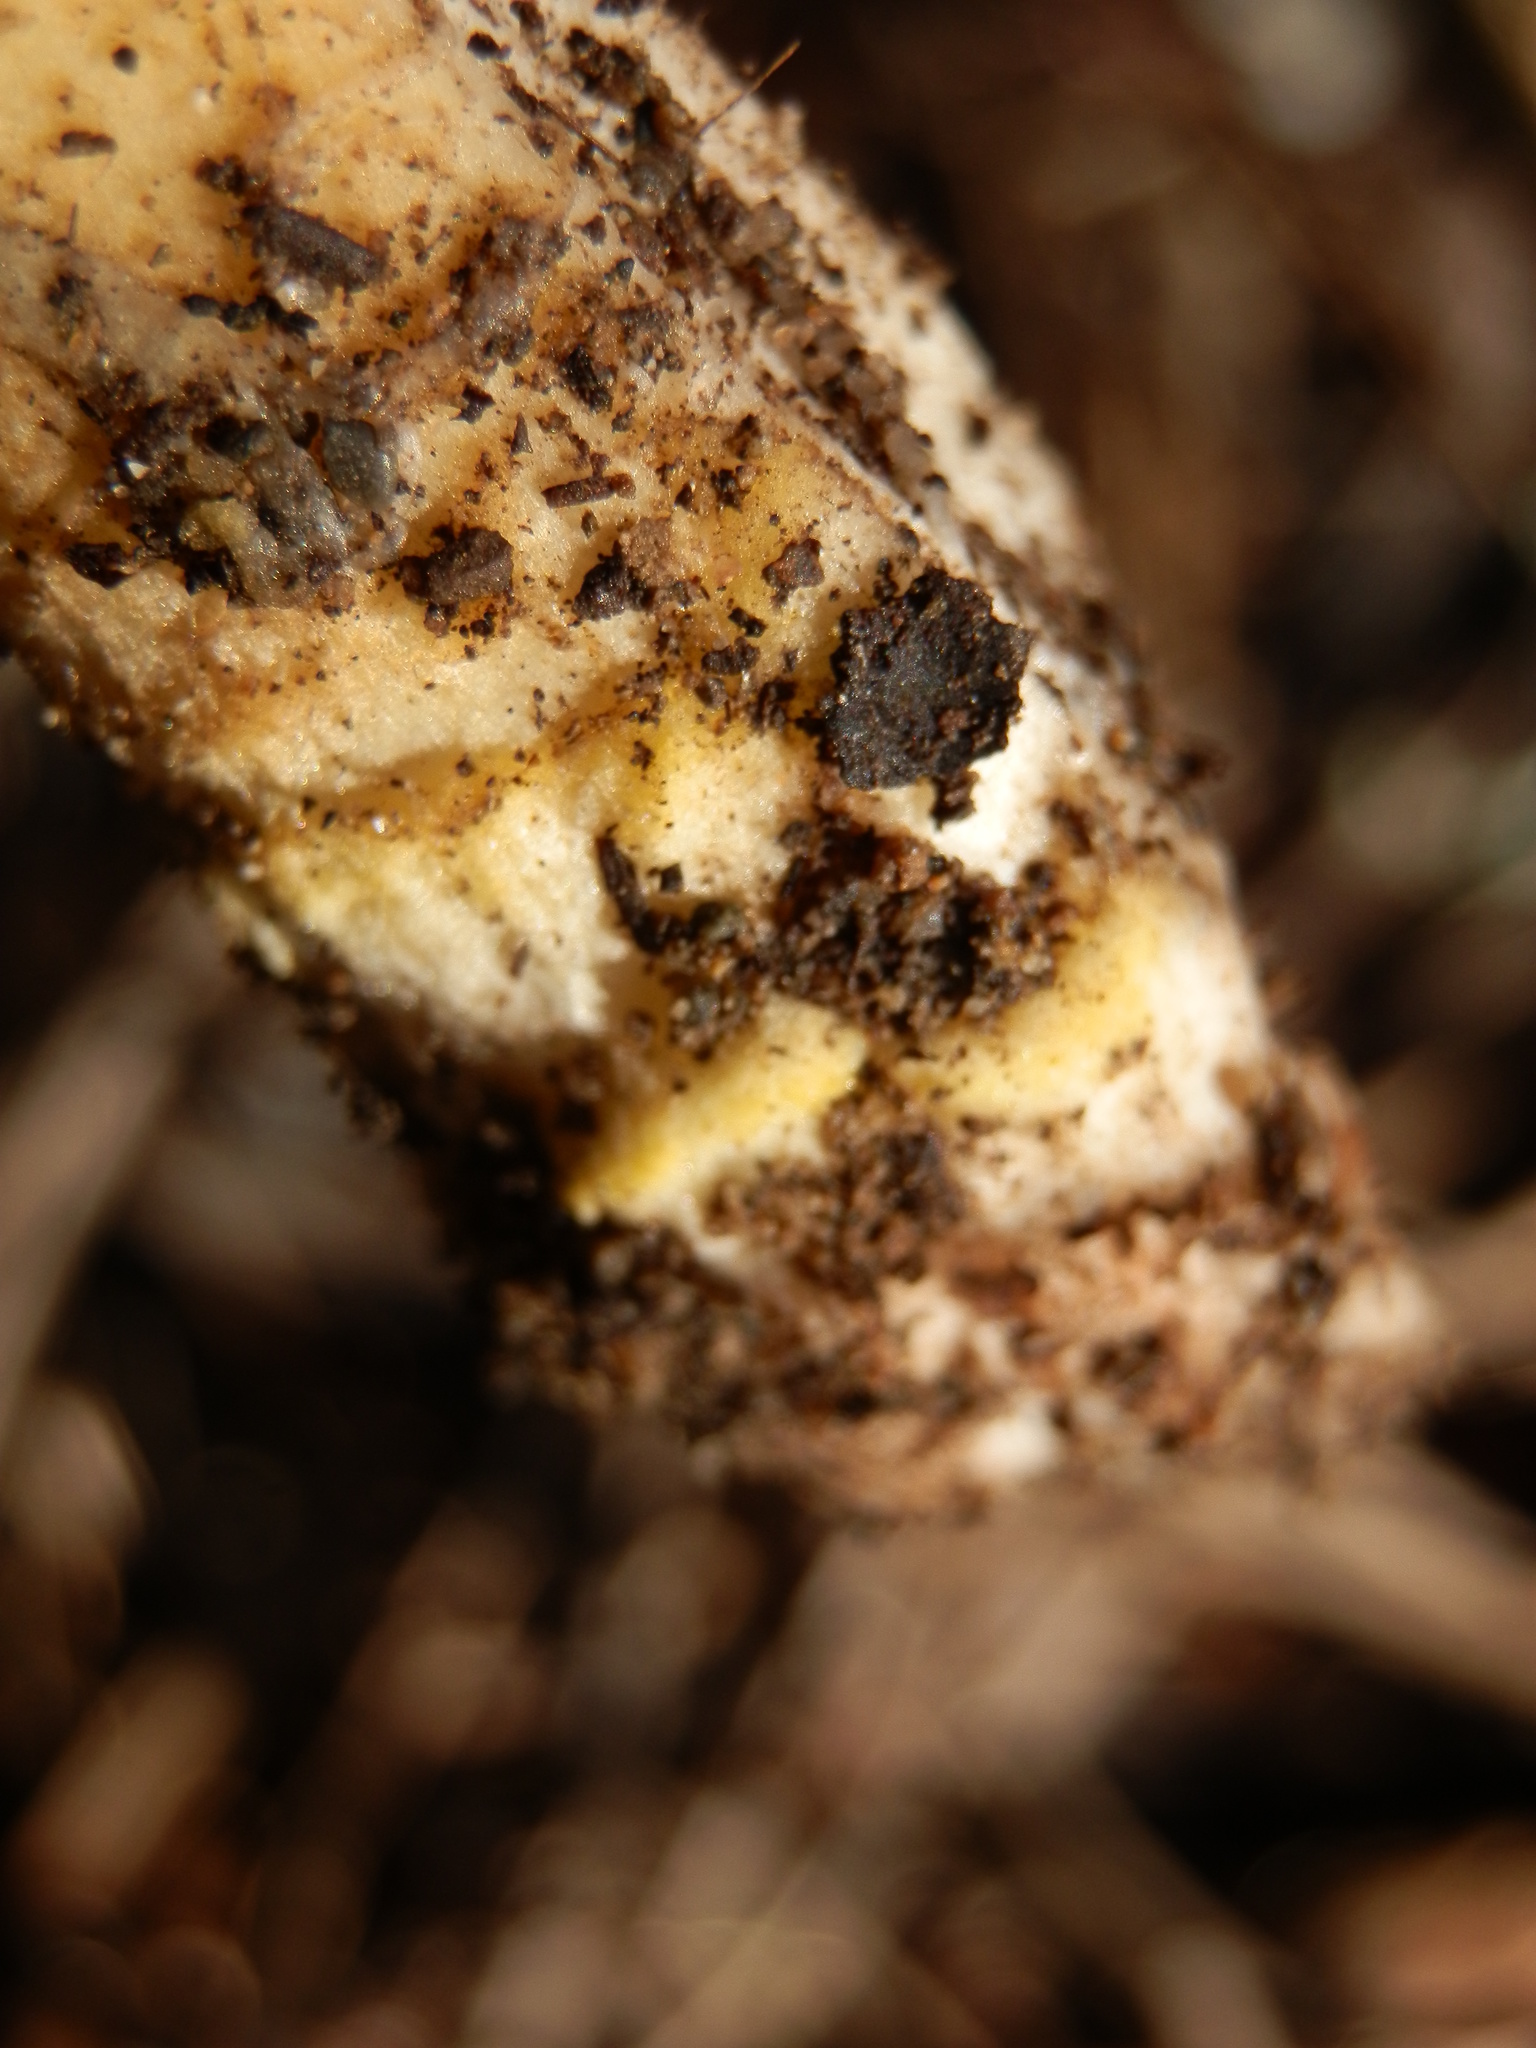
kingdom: Fungi
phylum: Basidiomycota
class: Agaricomycetes
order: Agaricales
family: Amanitaceae
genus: Amanita
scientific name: Amanita augusta
